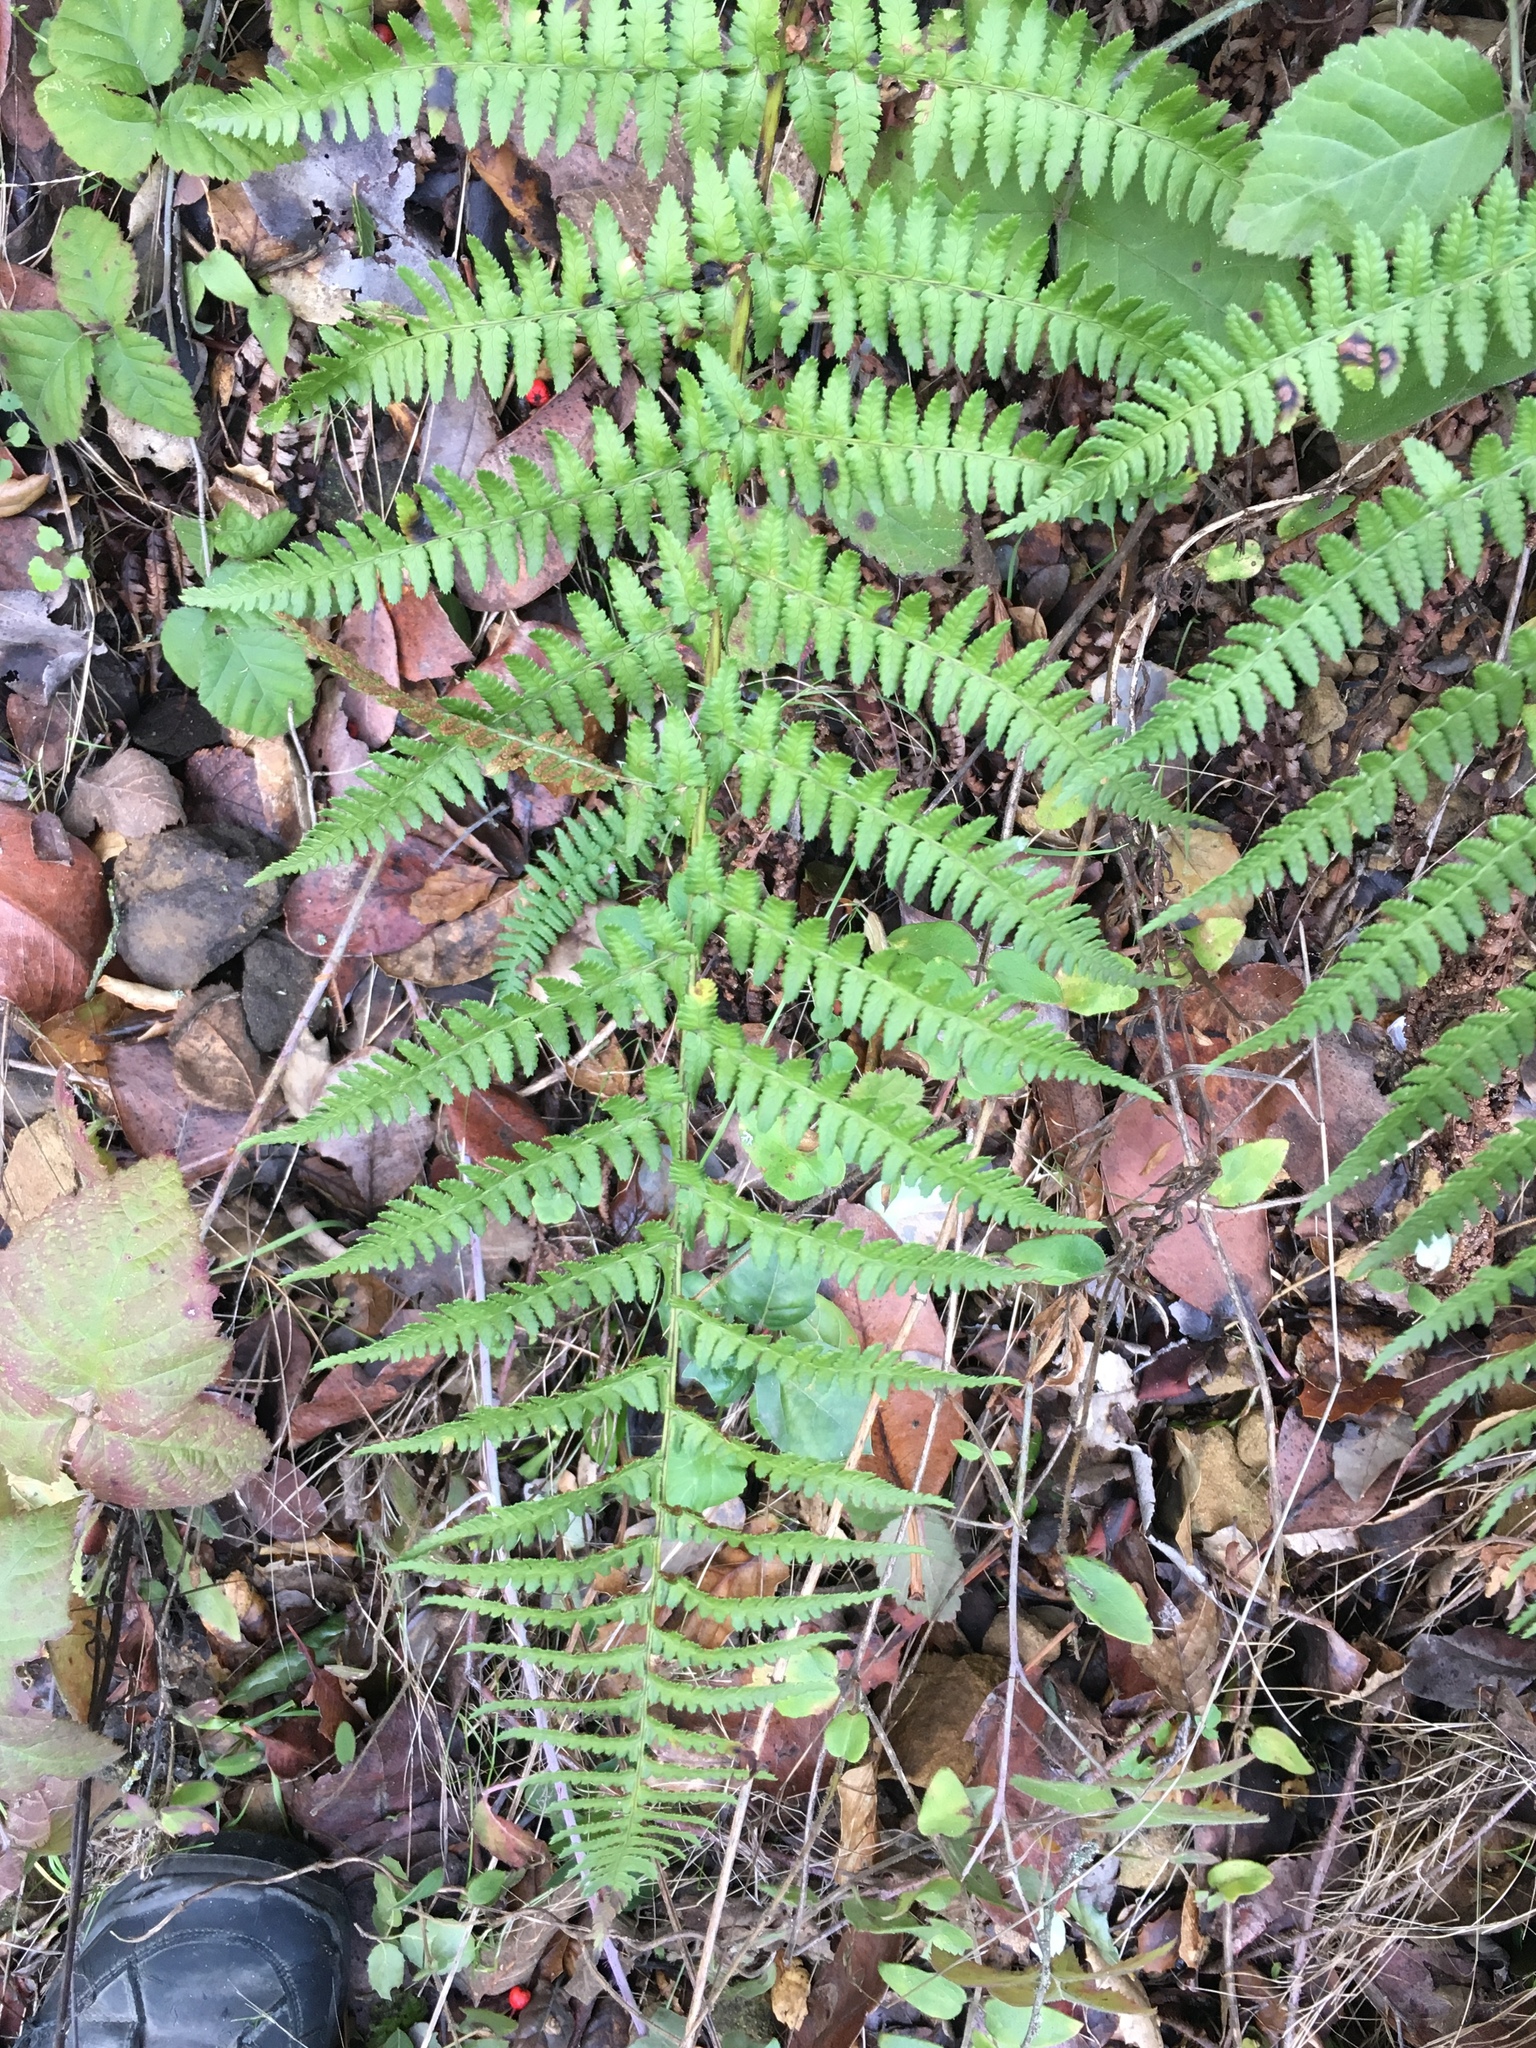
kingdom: Plantae
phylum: Tracheophyta
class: Polypodiopsida
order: Polypodiales
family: Dryopteridaceae
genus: Dryopteris
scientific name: Dryopteris arguta
